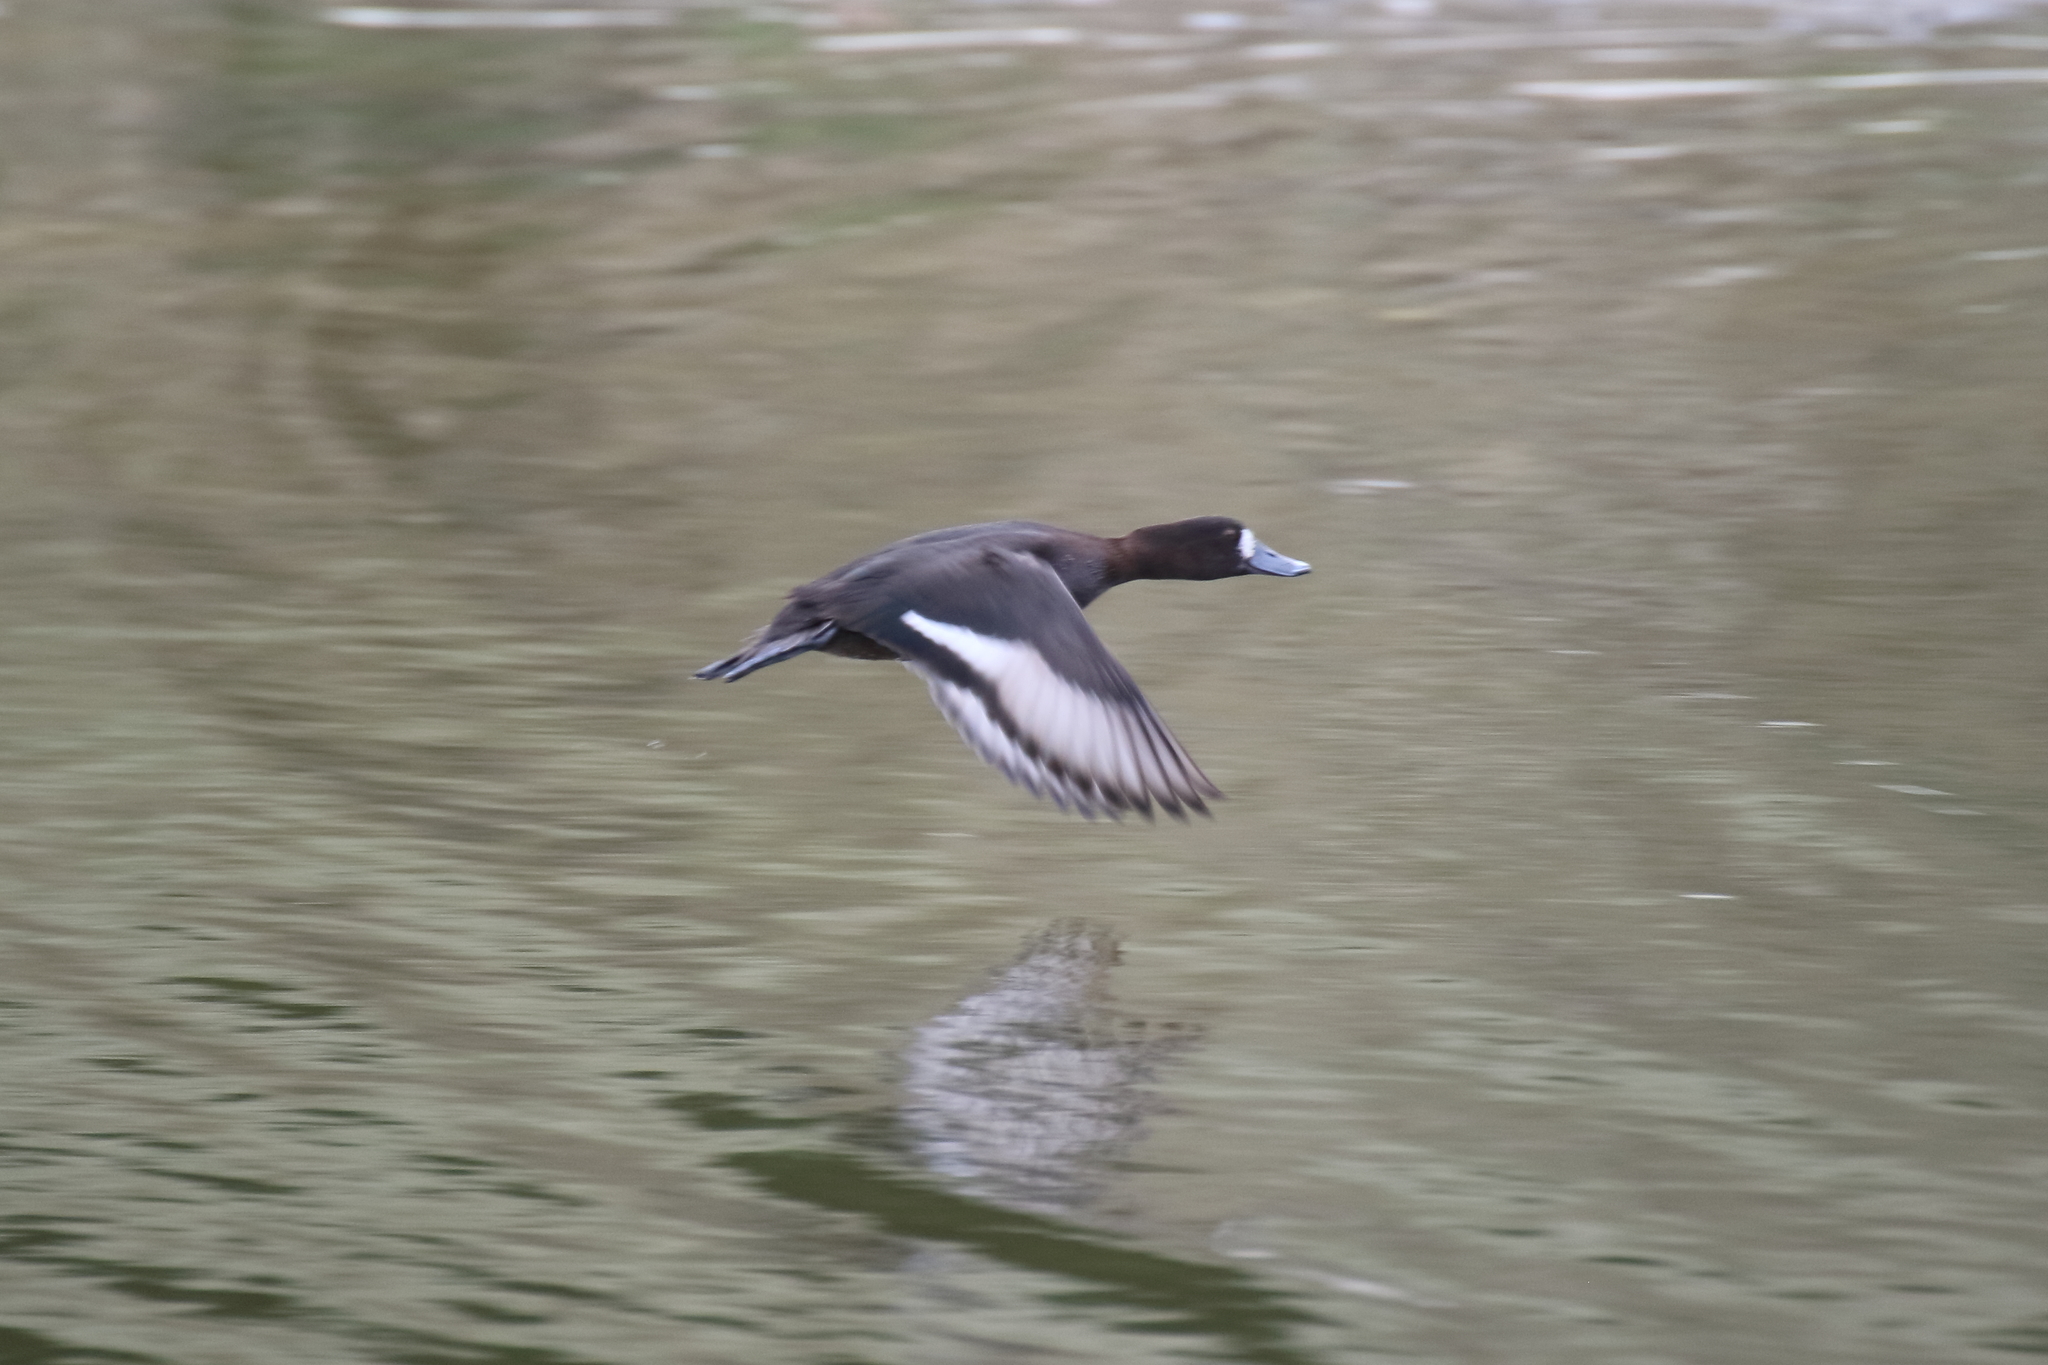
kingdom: Animalia
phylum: Chordata
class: Aves
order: Anseriformes
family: Anatidae
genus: Aythya
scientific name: Aythya novaeseelandiae
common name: New zealand scaup
